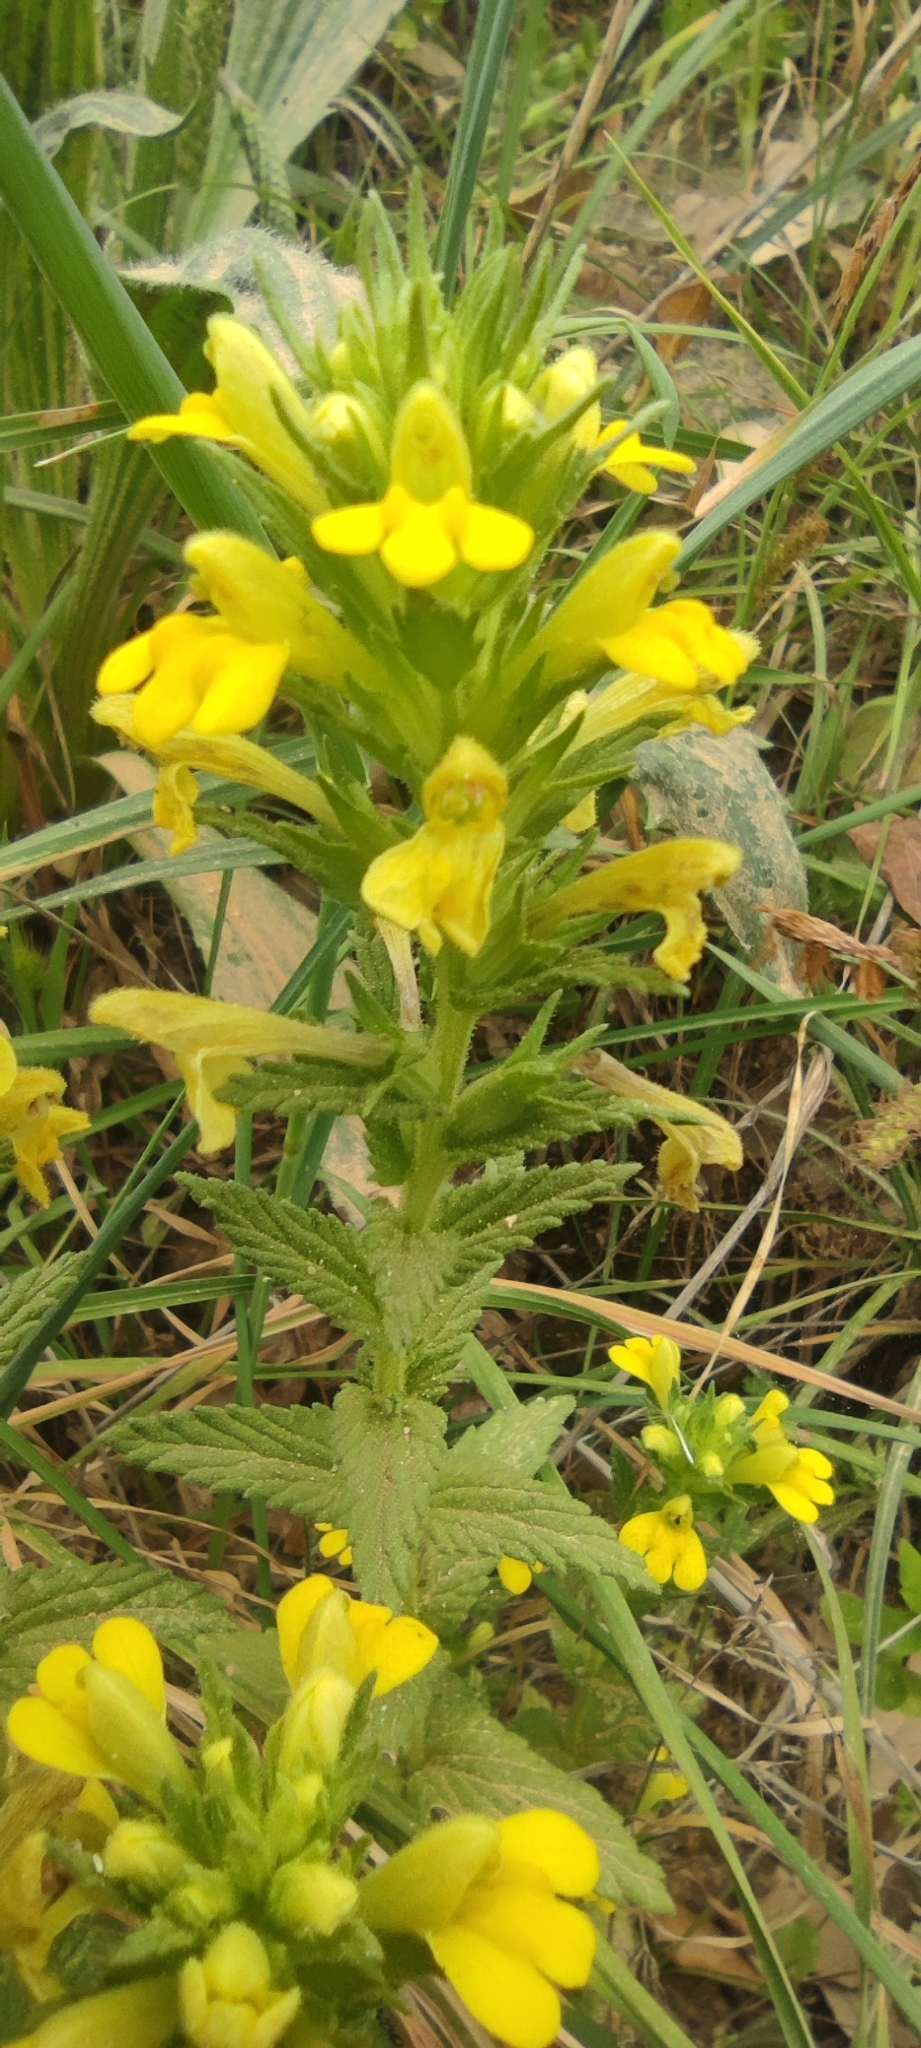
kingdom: Plantae
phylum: Tracheophyta
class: Magnoliopsida
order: Lamiales
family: Orobanchaceae
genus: Bellardia
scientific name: Bellardia viscosa
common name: Sticky parentucellia
